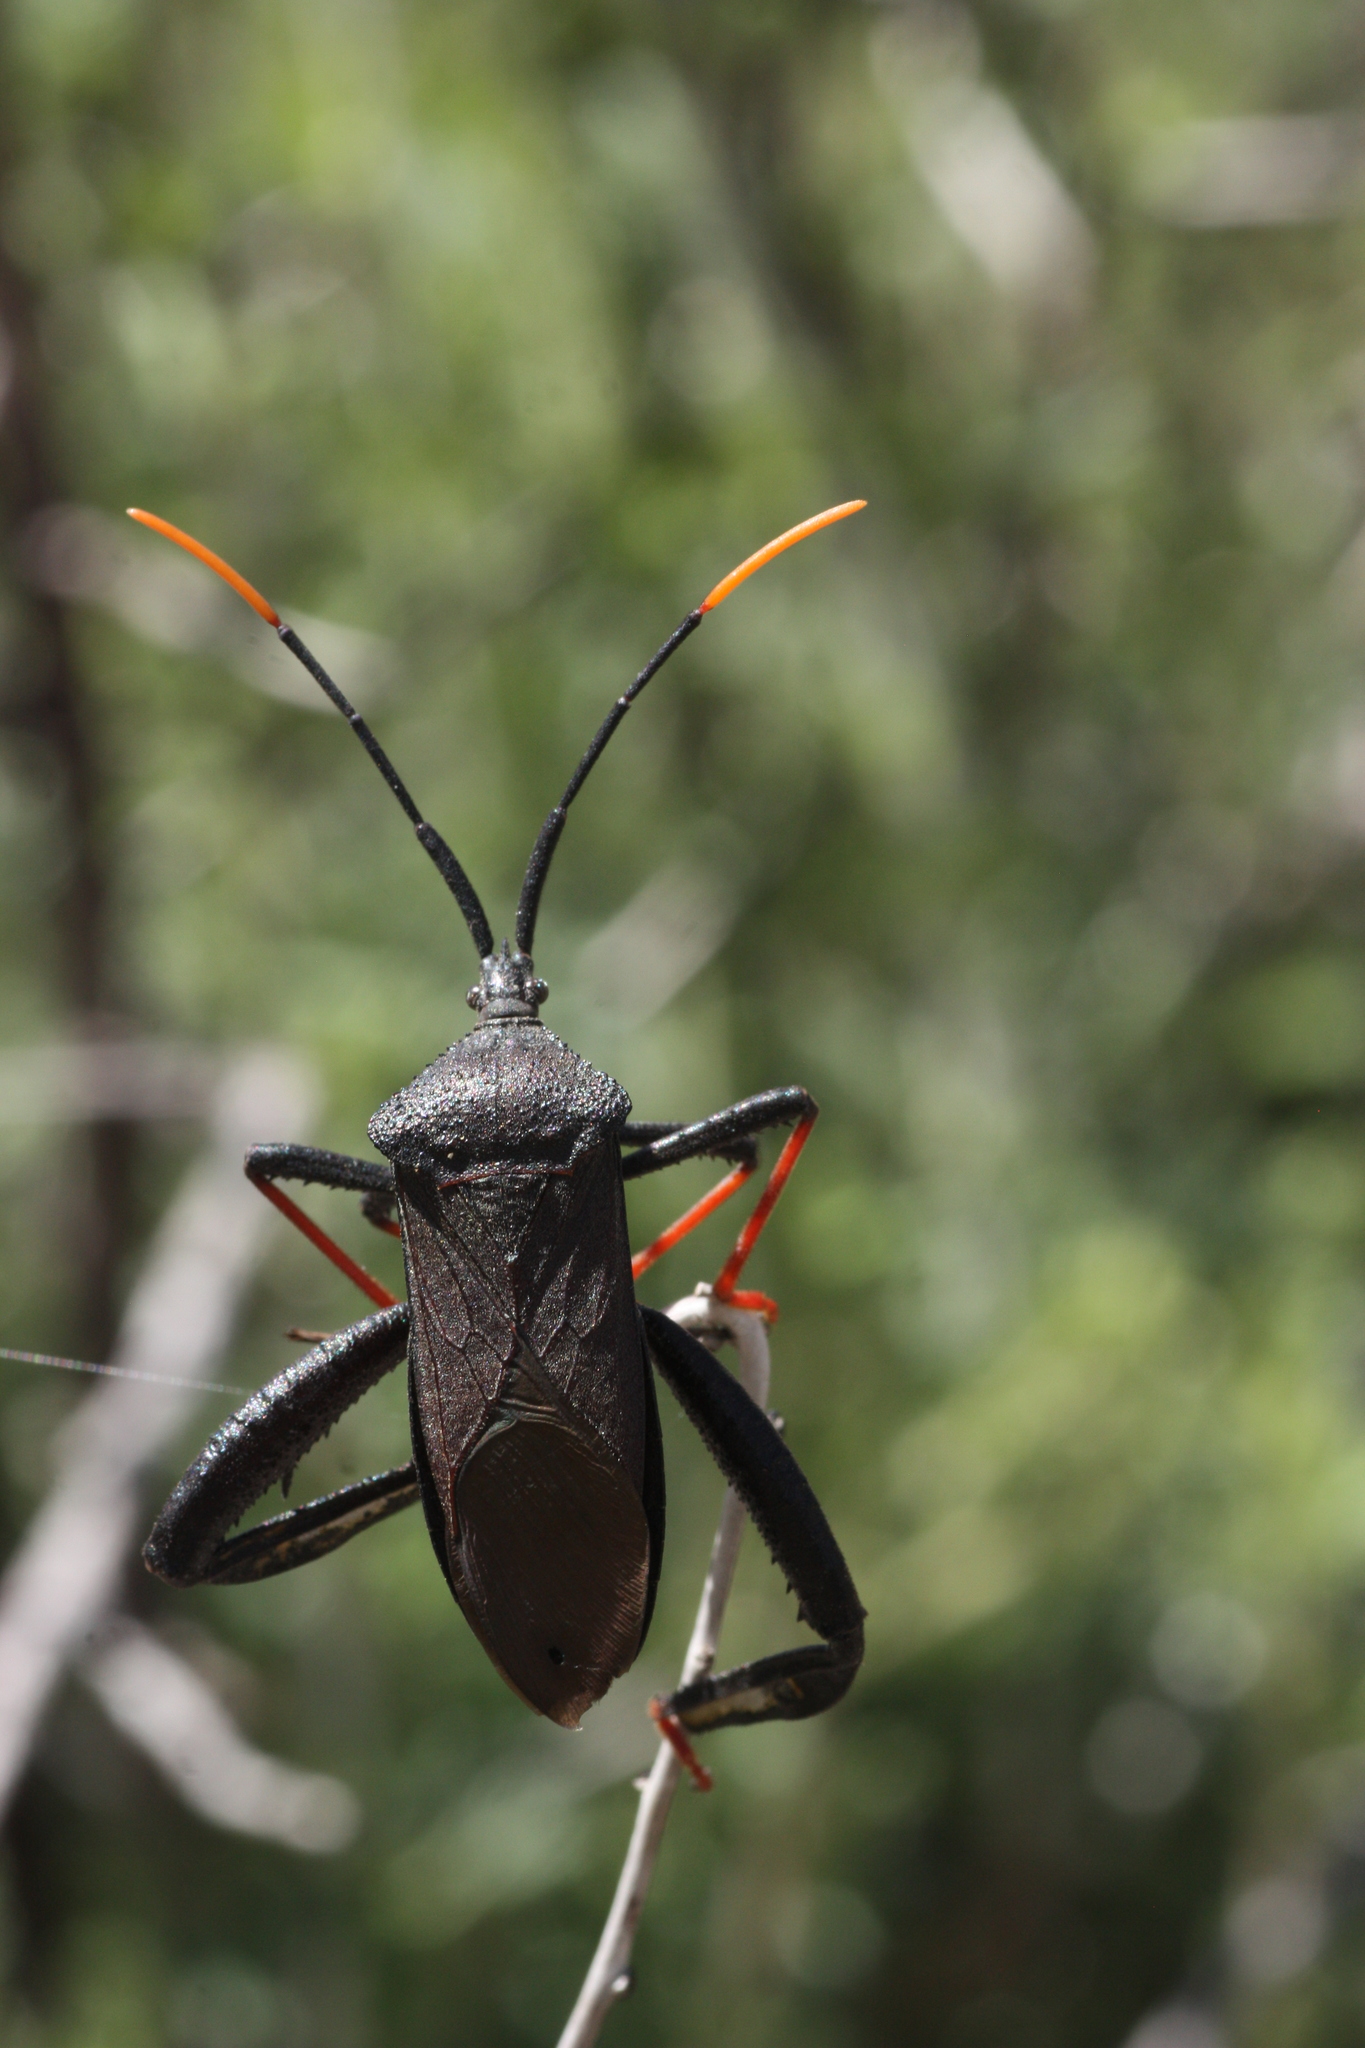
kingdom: Animalia
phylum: Arthropoda
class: Insecta
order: Hemiptera
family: Coreidae
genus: Acanthocephala
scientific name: Acanthocephala thomasi
